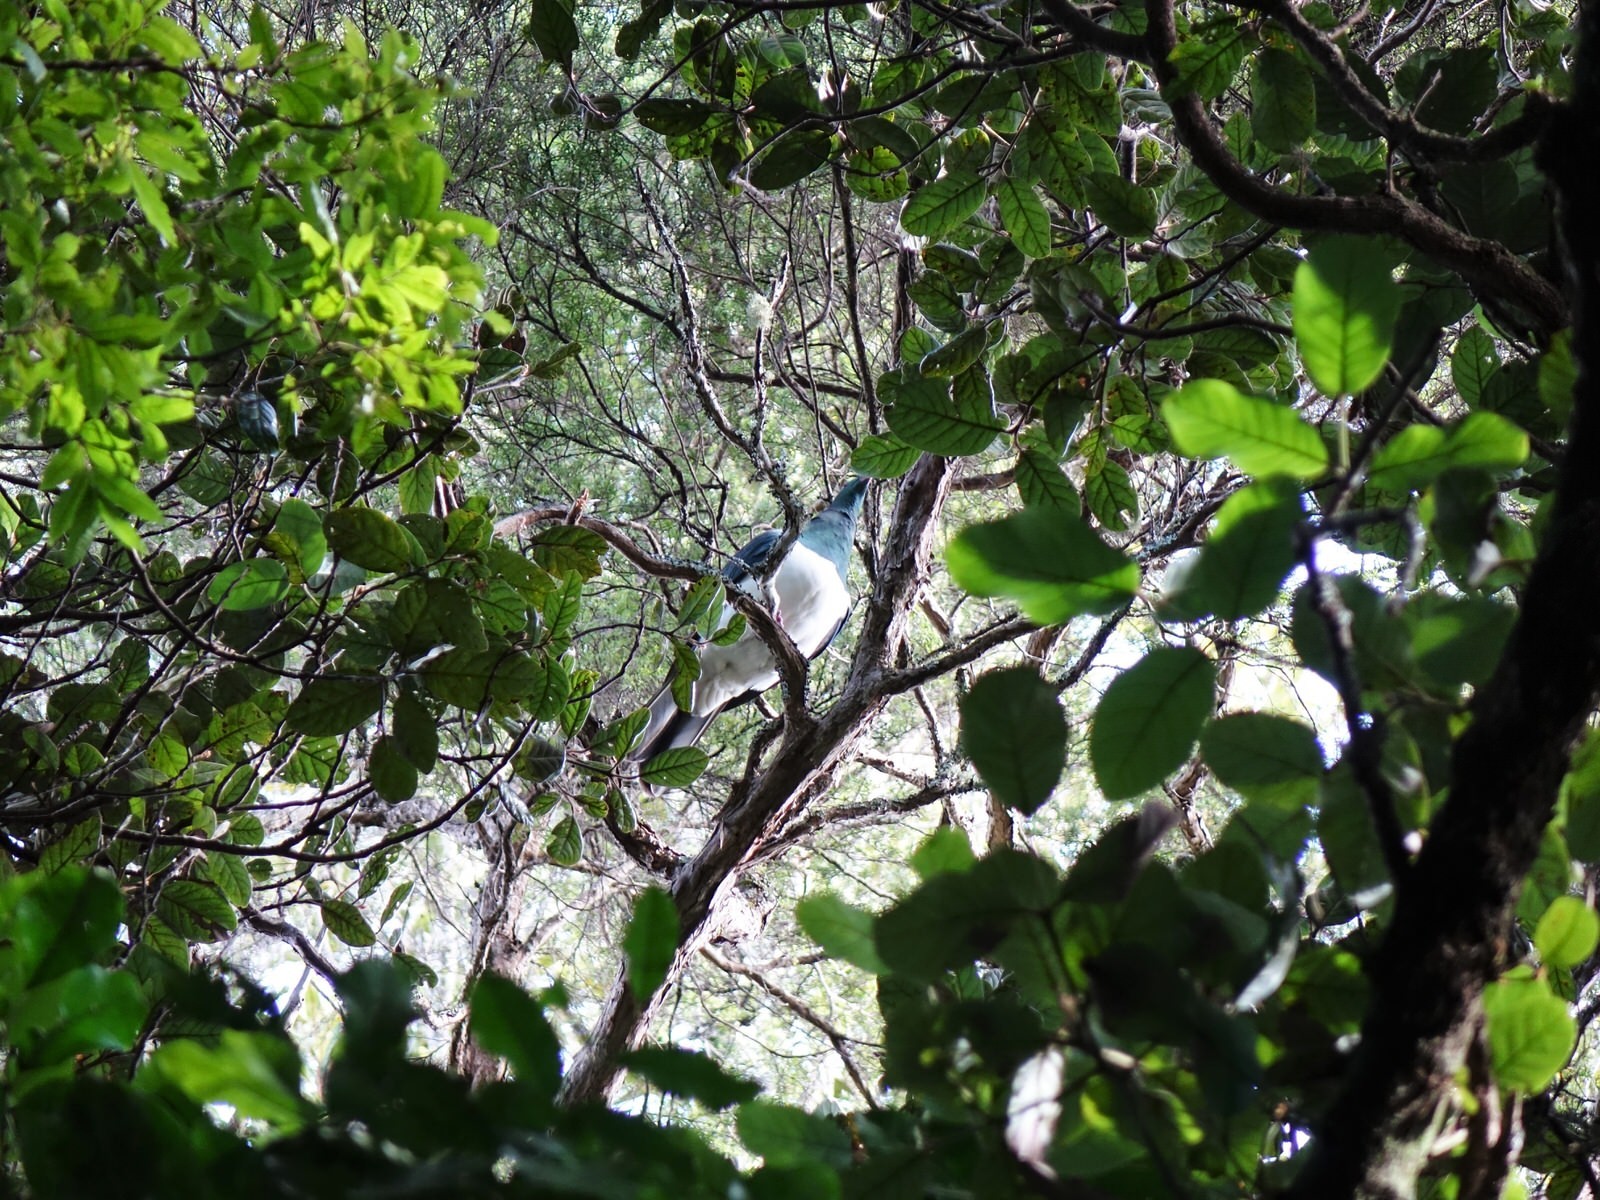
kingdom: Animalia
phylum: Chordata
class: Aves
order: Columbiformes
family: Columbidae
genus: Hemiphaga
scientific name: Hemiphaga novaeseelandiae
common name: New zealand pigeon
